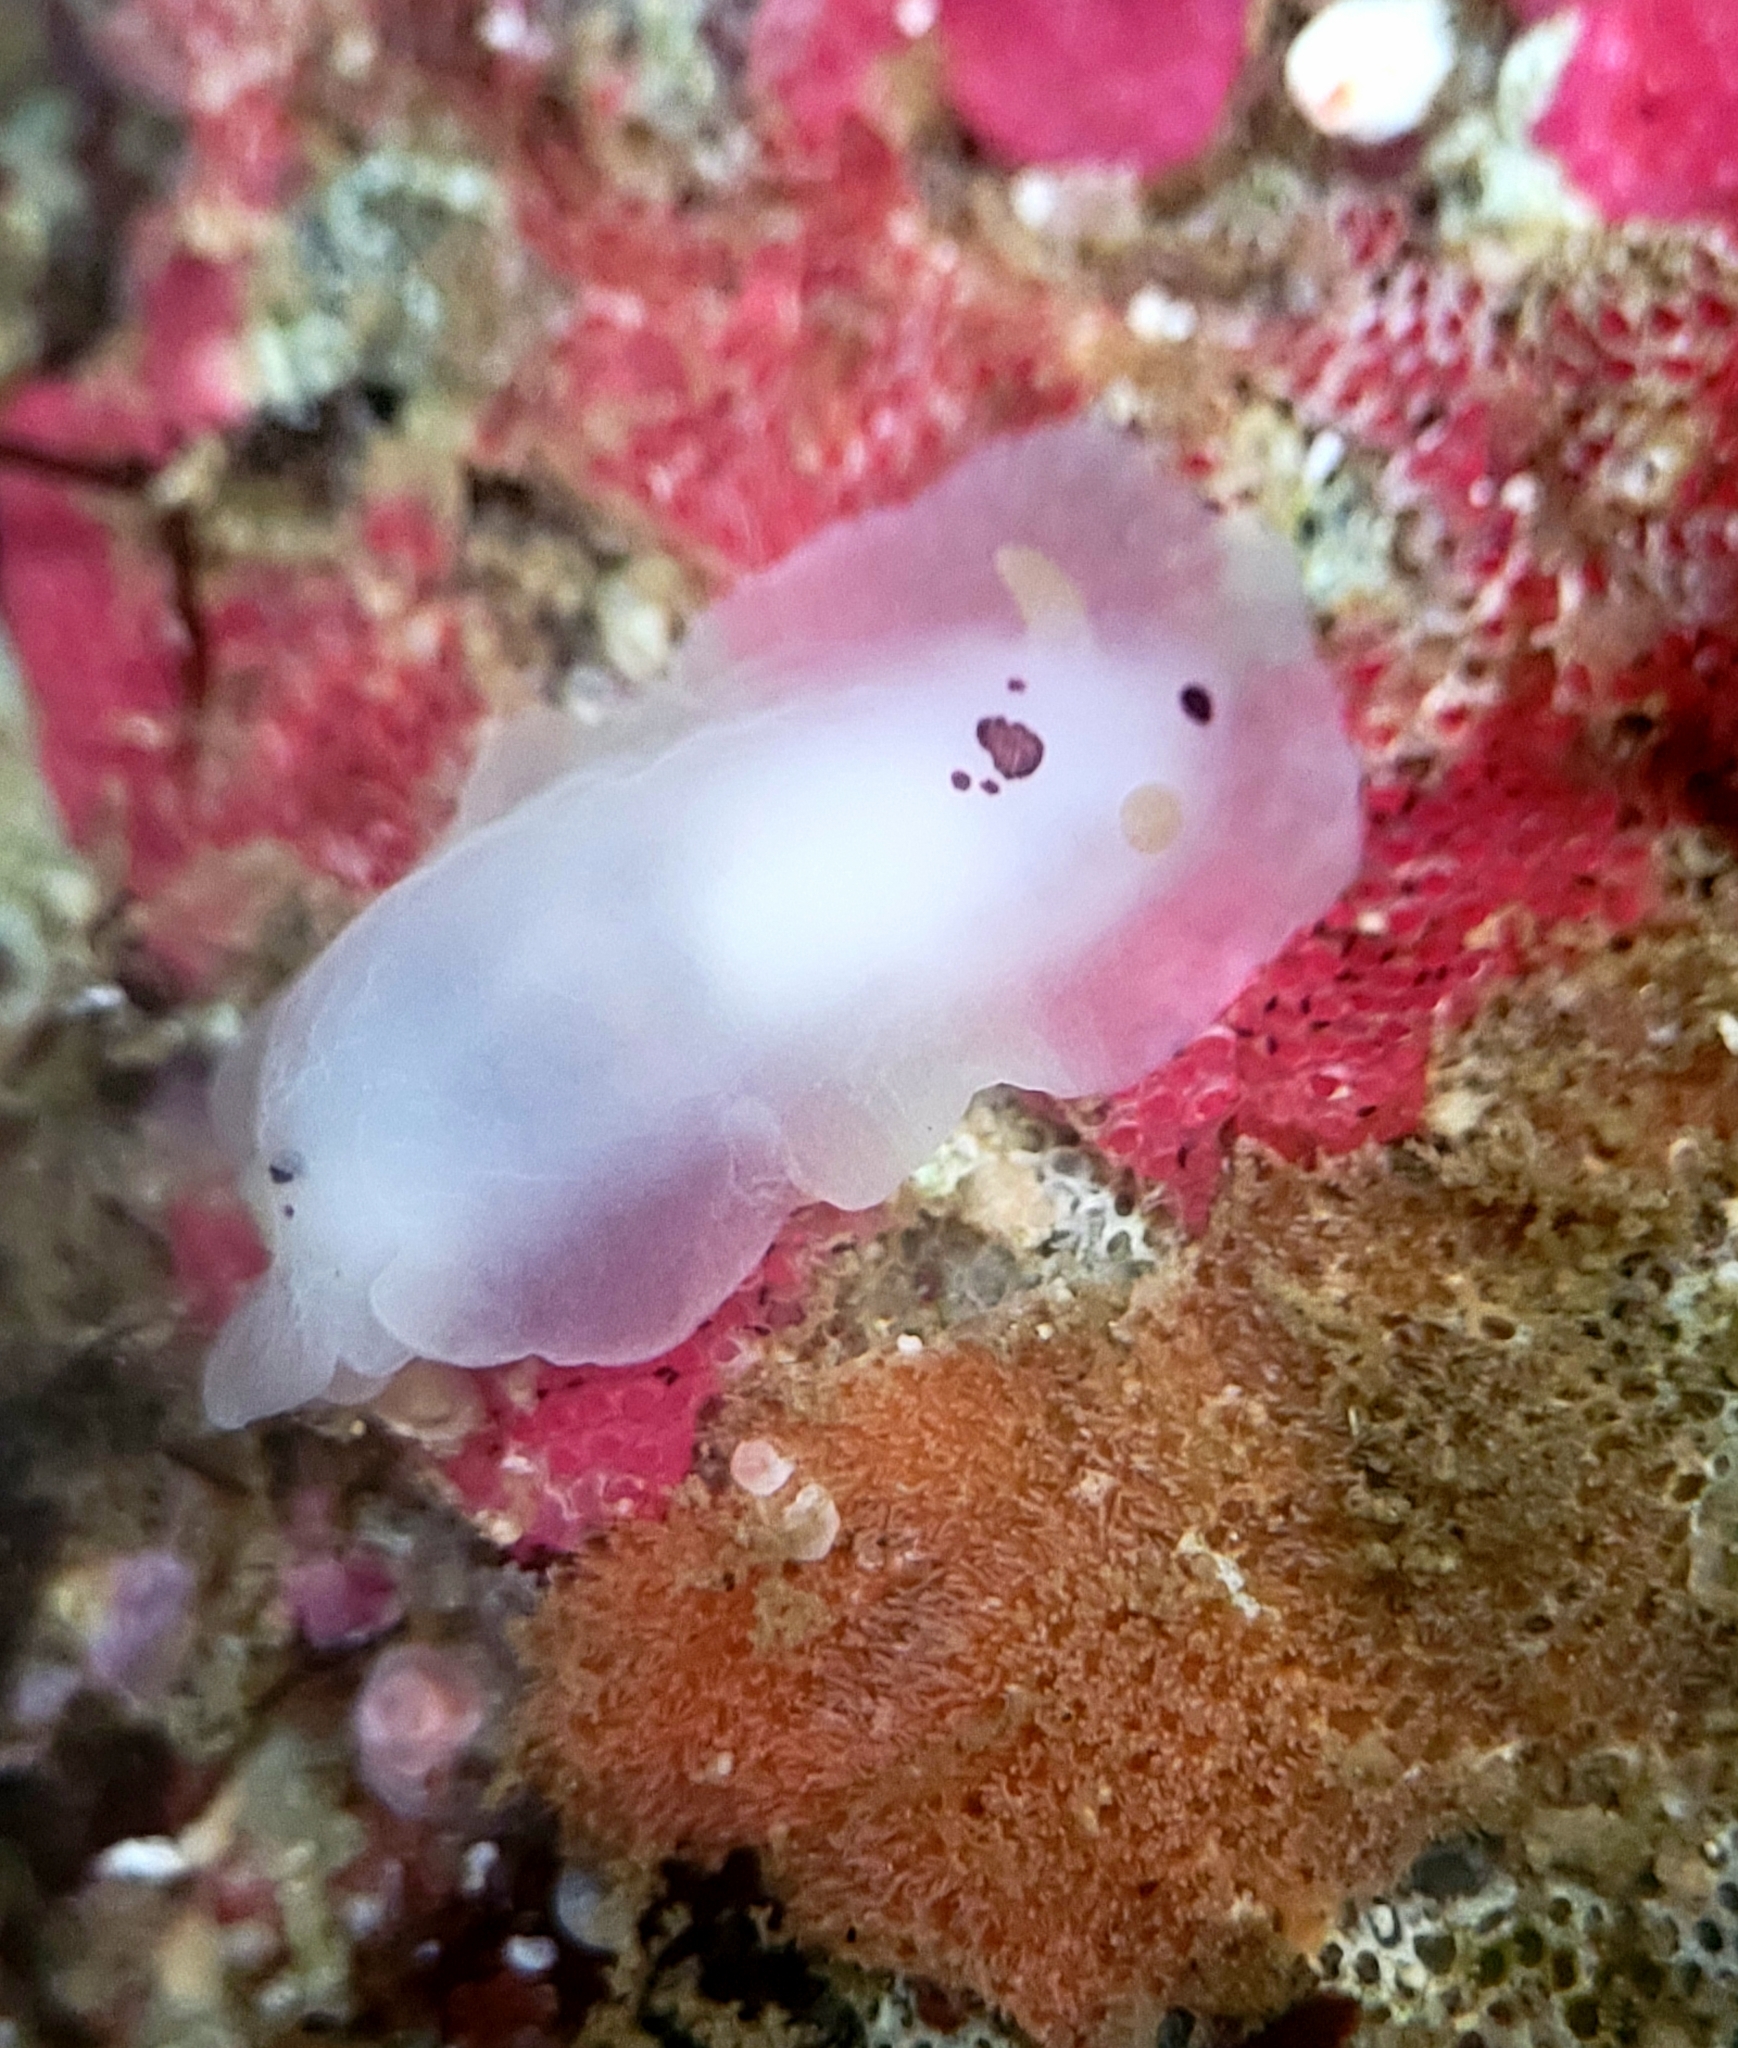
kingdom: Animalia
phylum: Mollusca
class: Gastropoda
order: Nudibranchia
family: Dendrodorididae
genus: Dendrodoris
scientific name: Dendrodoris nigromaculata
